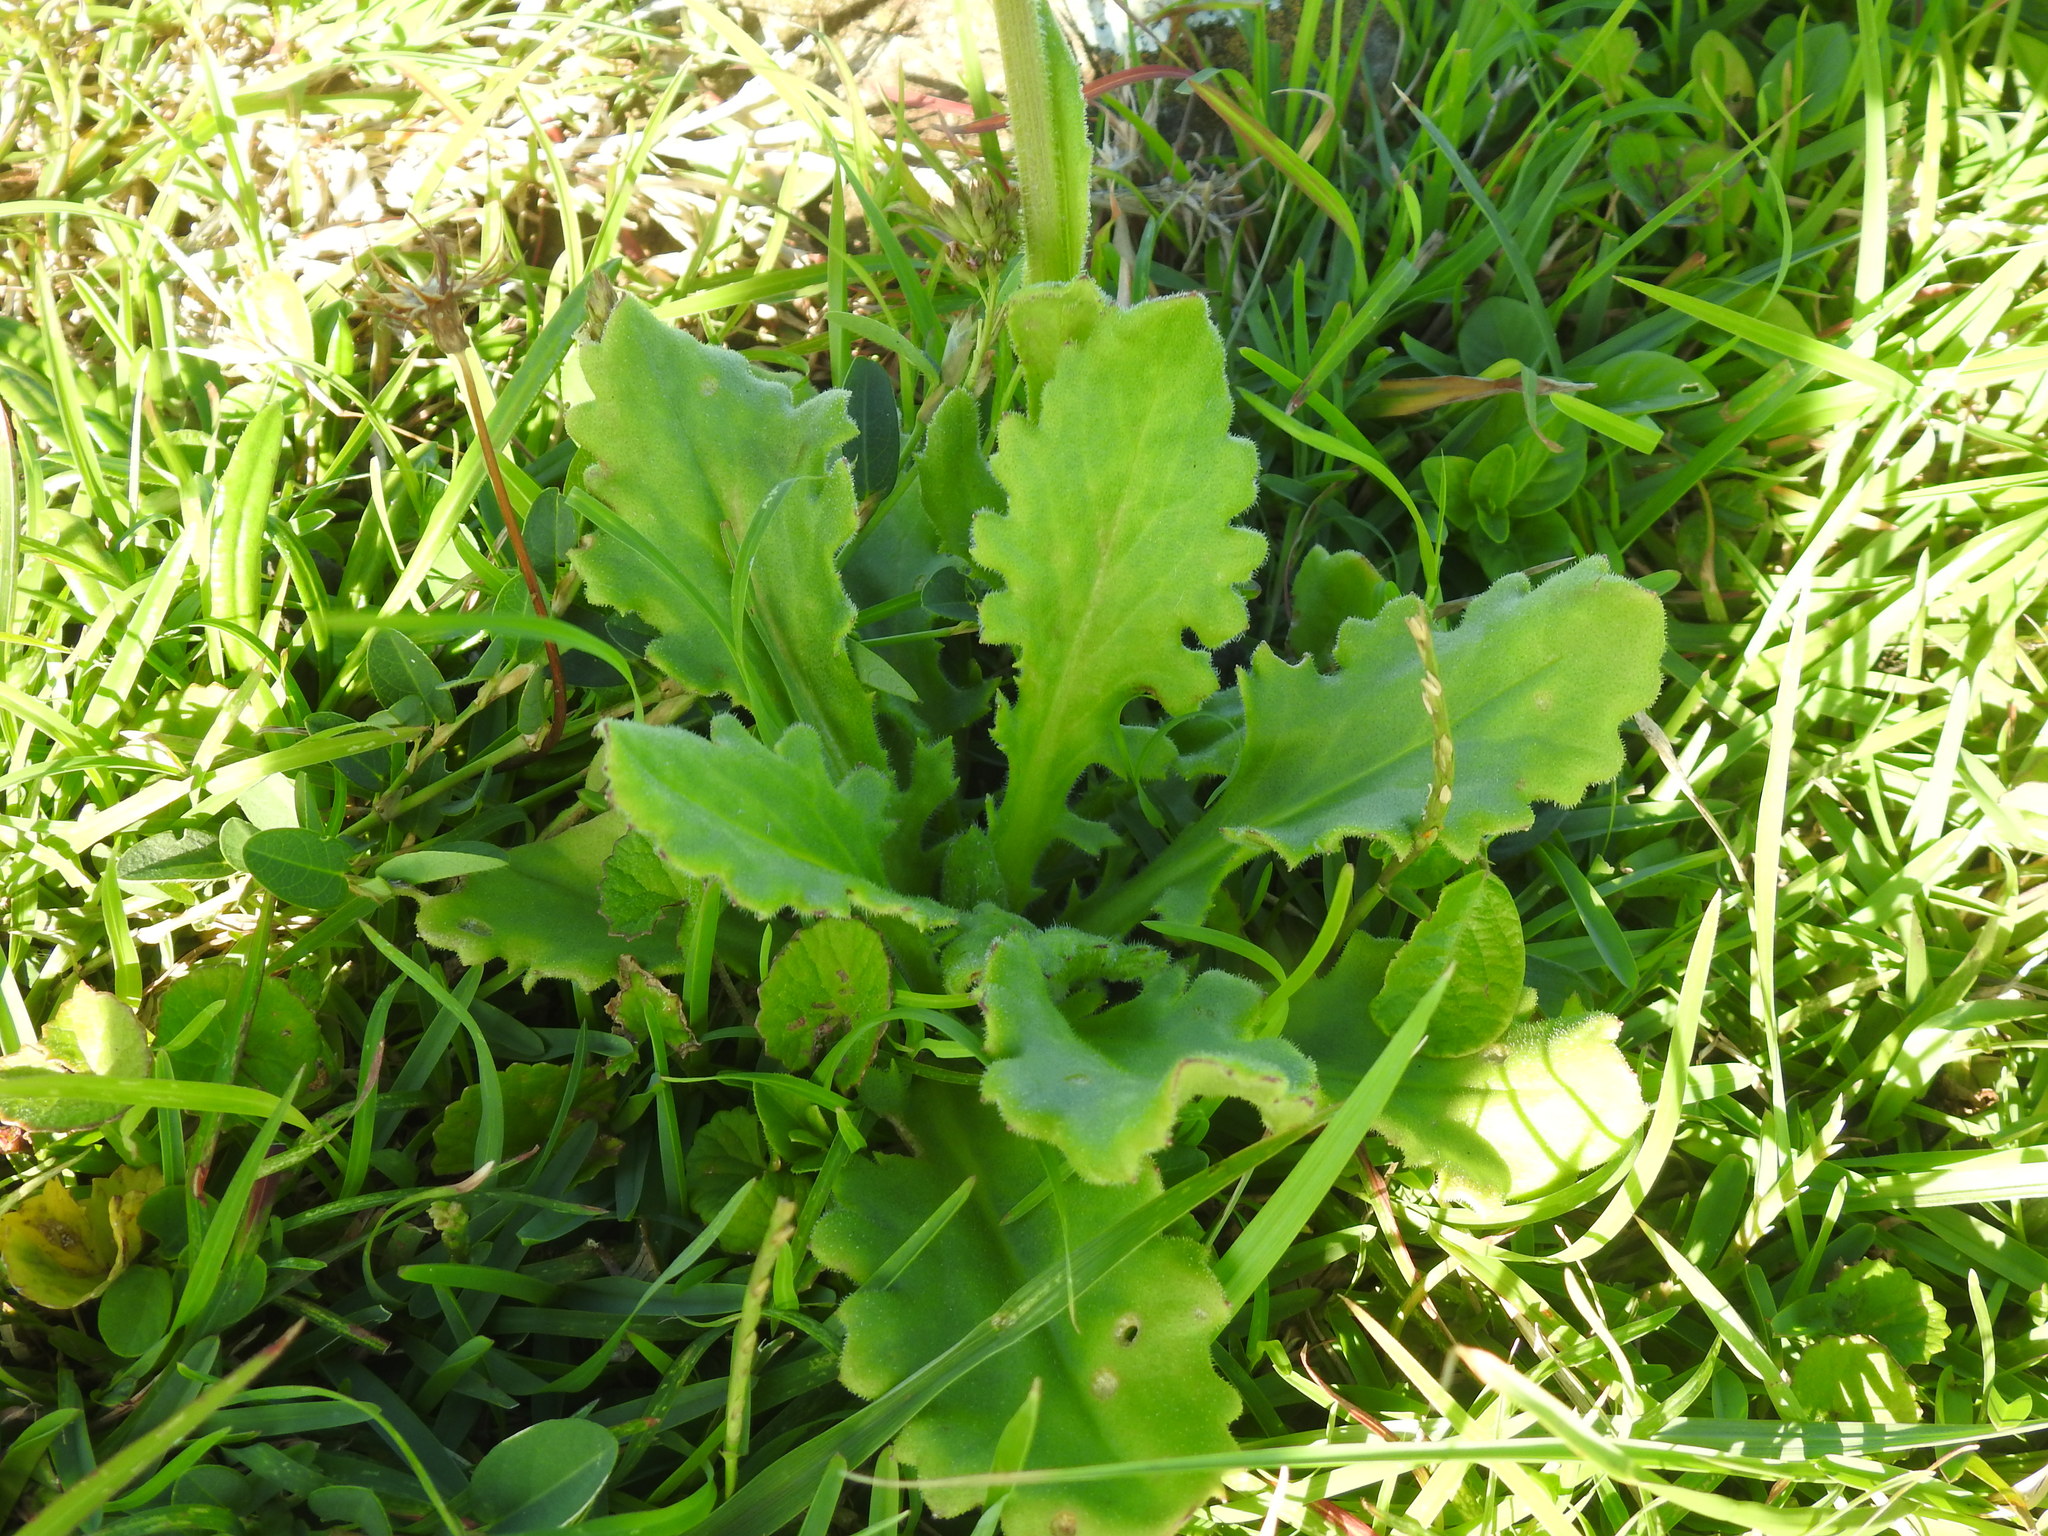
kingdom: Plantae
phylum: Tracheophyta
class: Magnoliopsida
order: Asterales
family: Asteraceae
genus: Senecio
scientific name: Senecio macrocephalus
